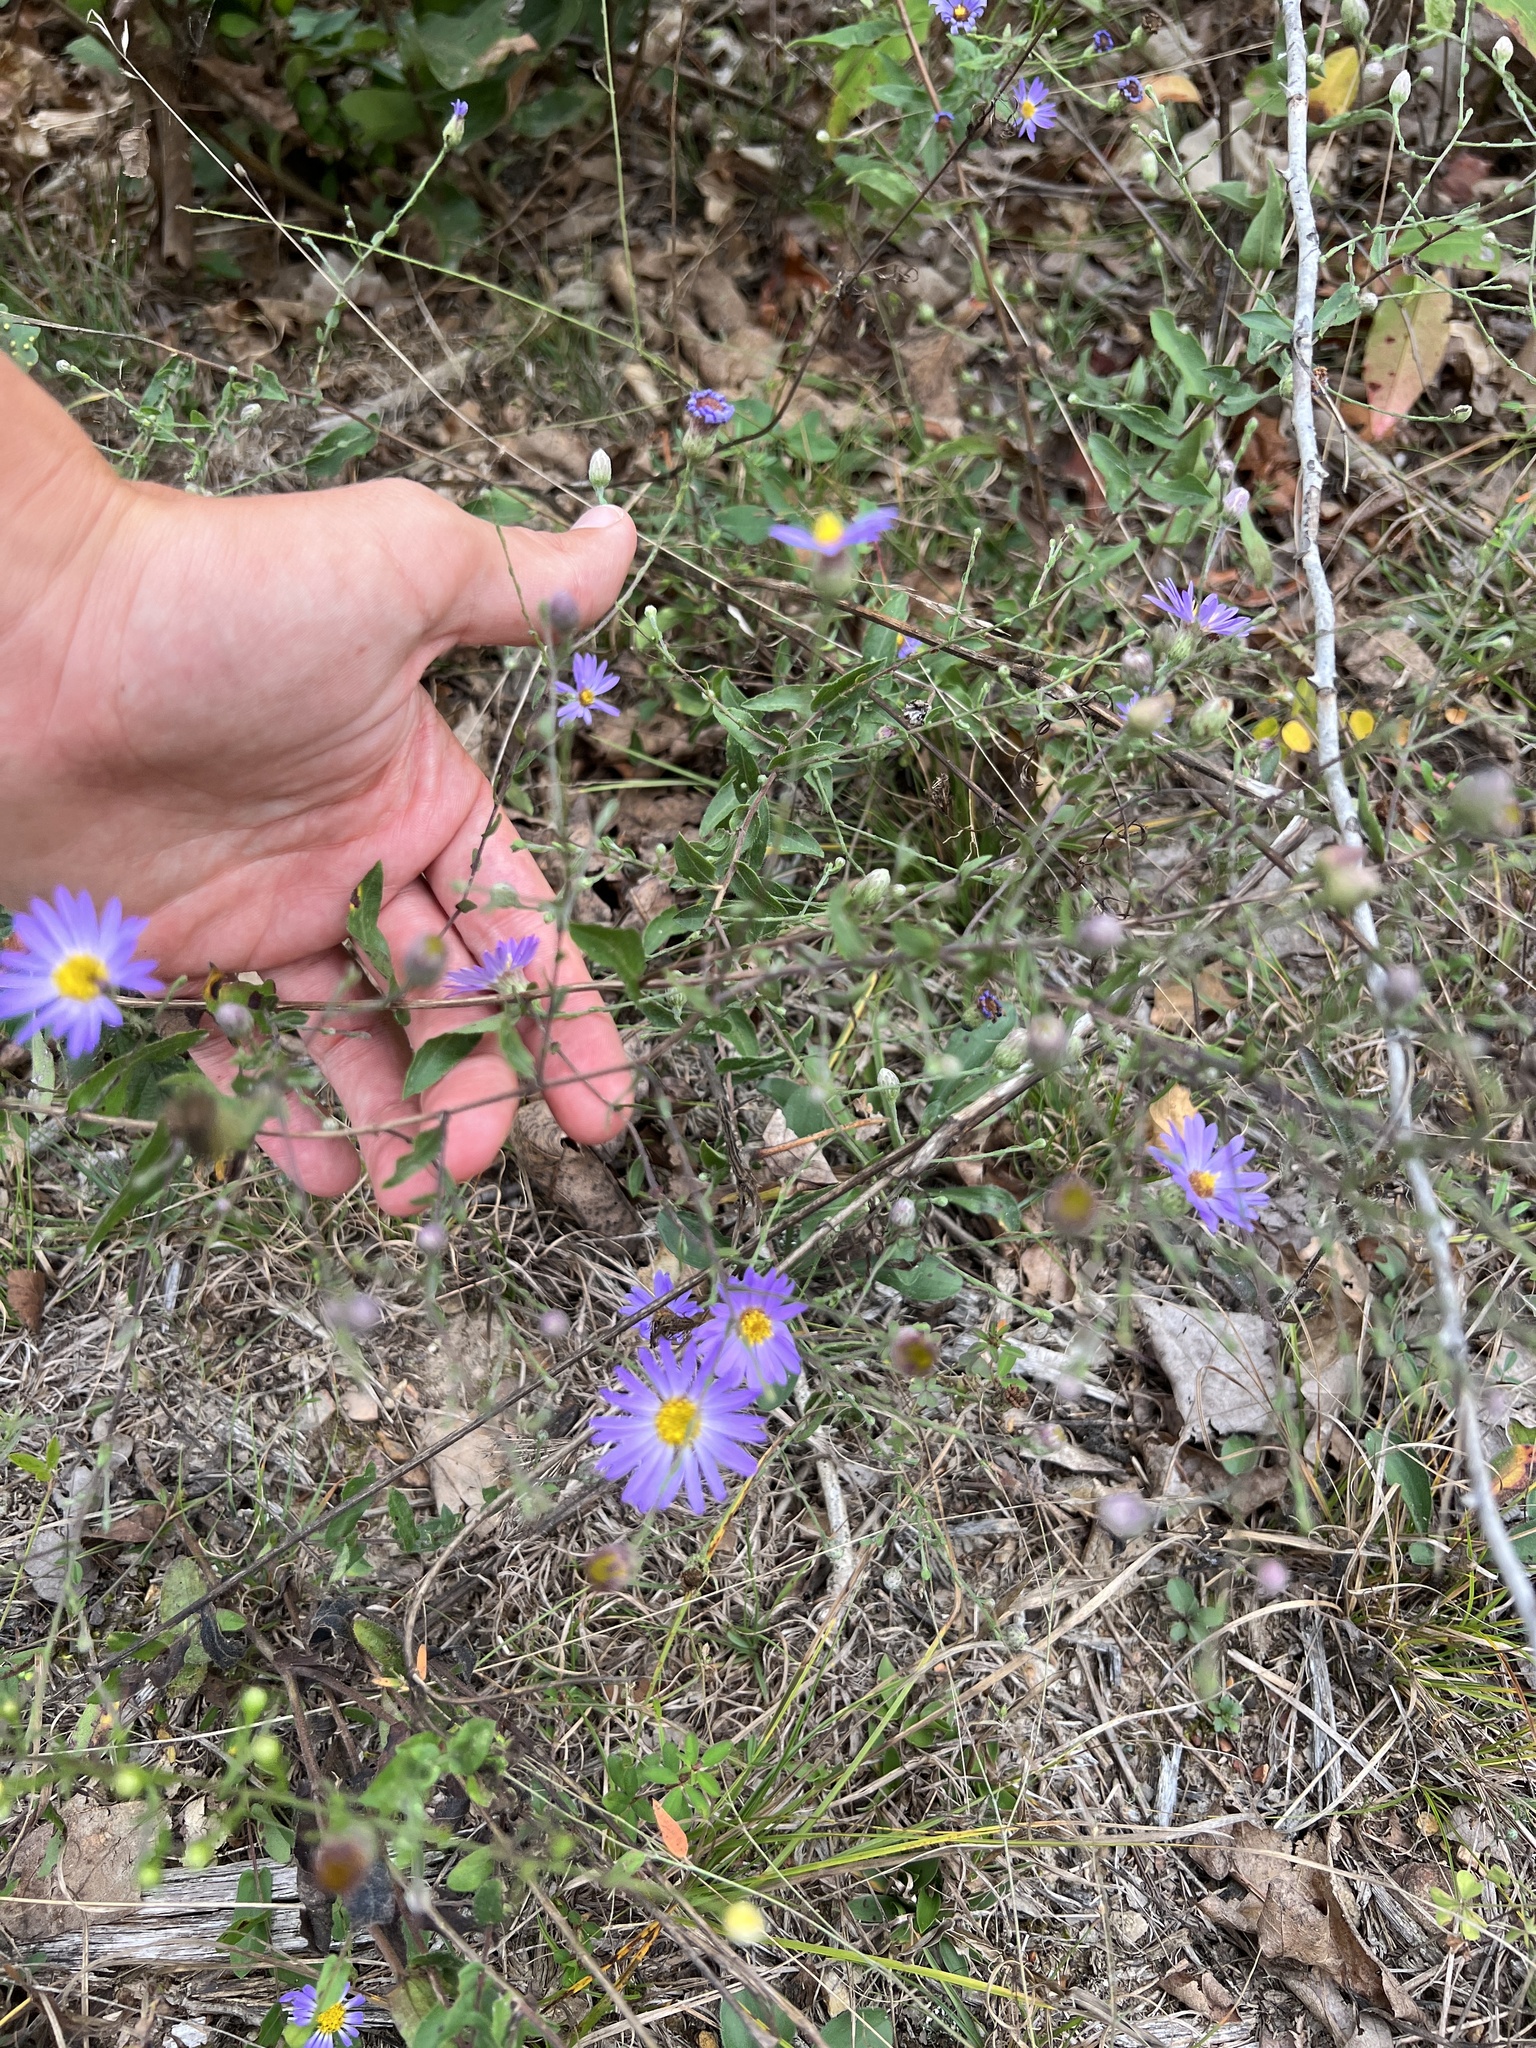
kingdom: Plantae
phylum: Tracheophyta
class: Magnoliopsida
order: Asterales
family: Asteraceae
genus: Symphyotrichum
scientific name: Symphyotrichum patens
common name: Late purple aster
